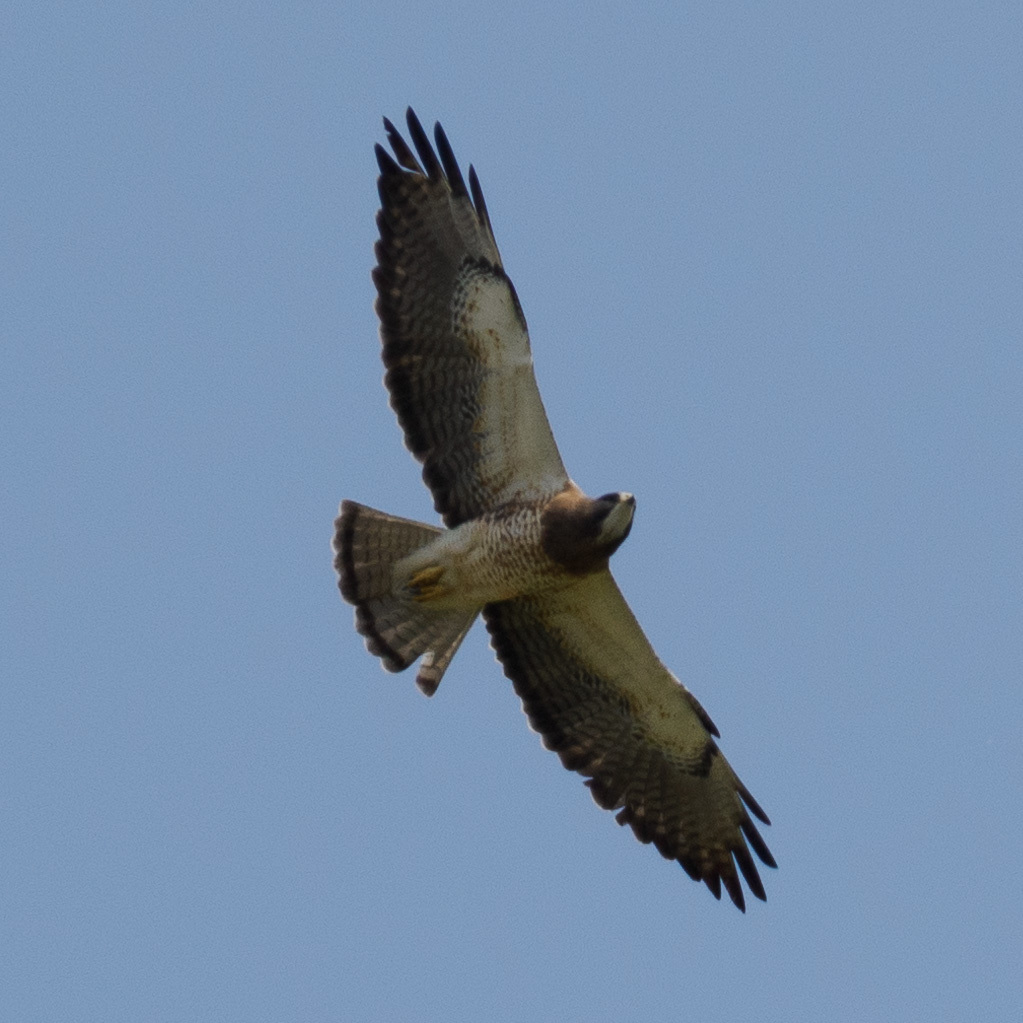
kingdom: Animalia
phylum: Chordata
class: Aves
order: Accipitriformes
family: Accipitridae
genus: Buteo
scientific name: Buteo swainsoni
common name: Swainson's hawk
